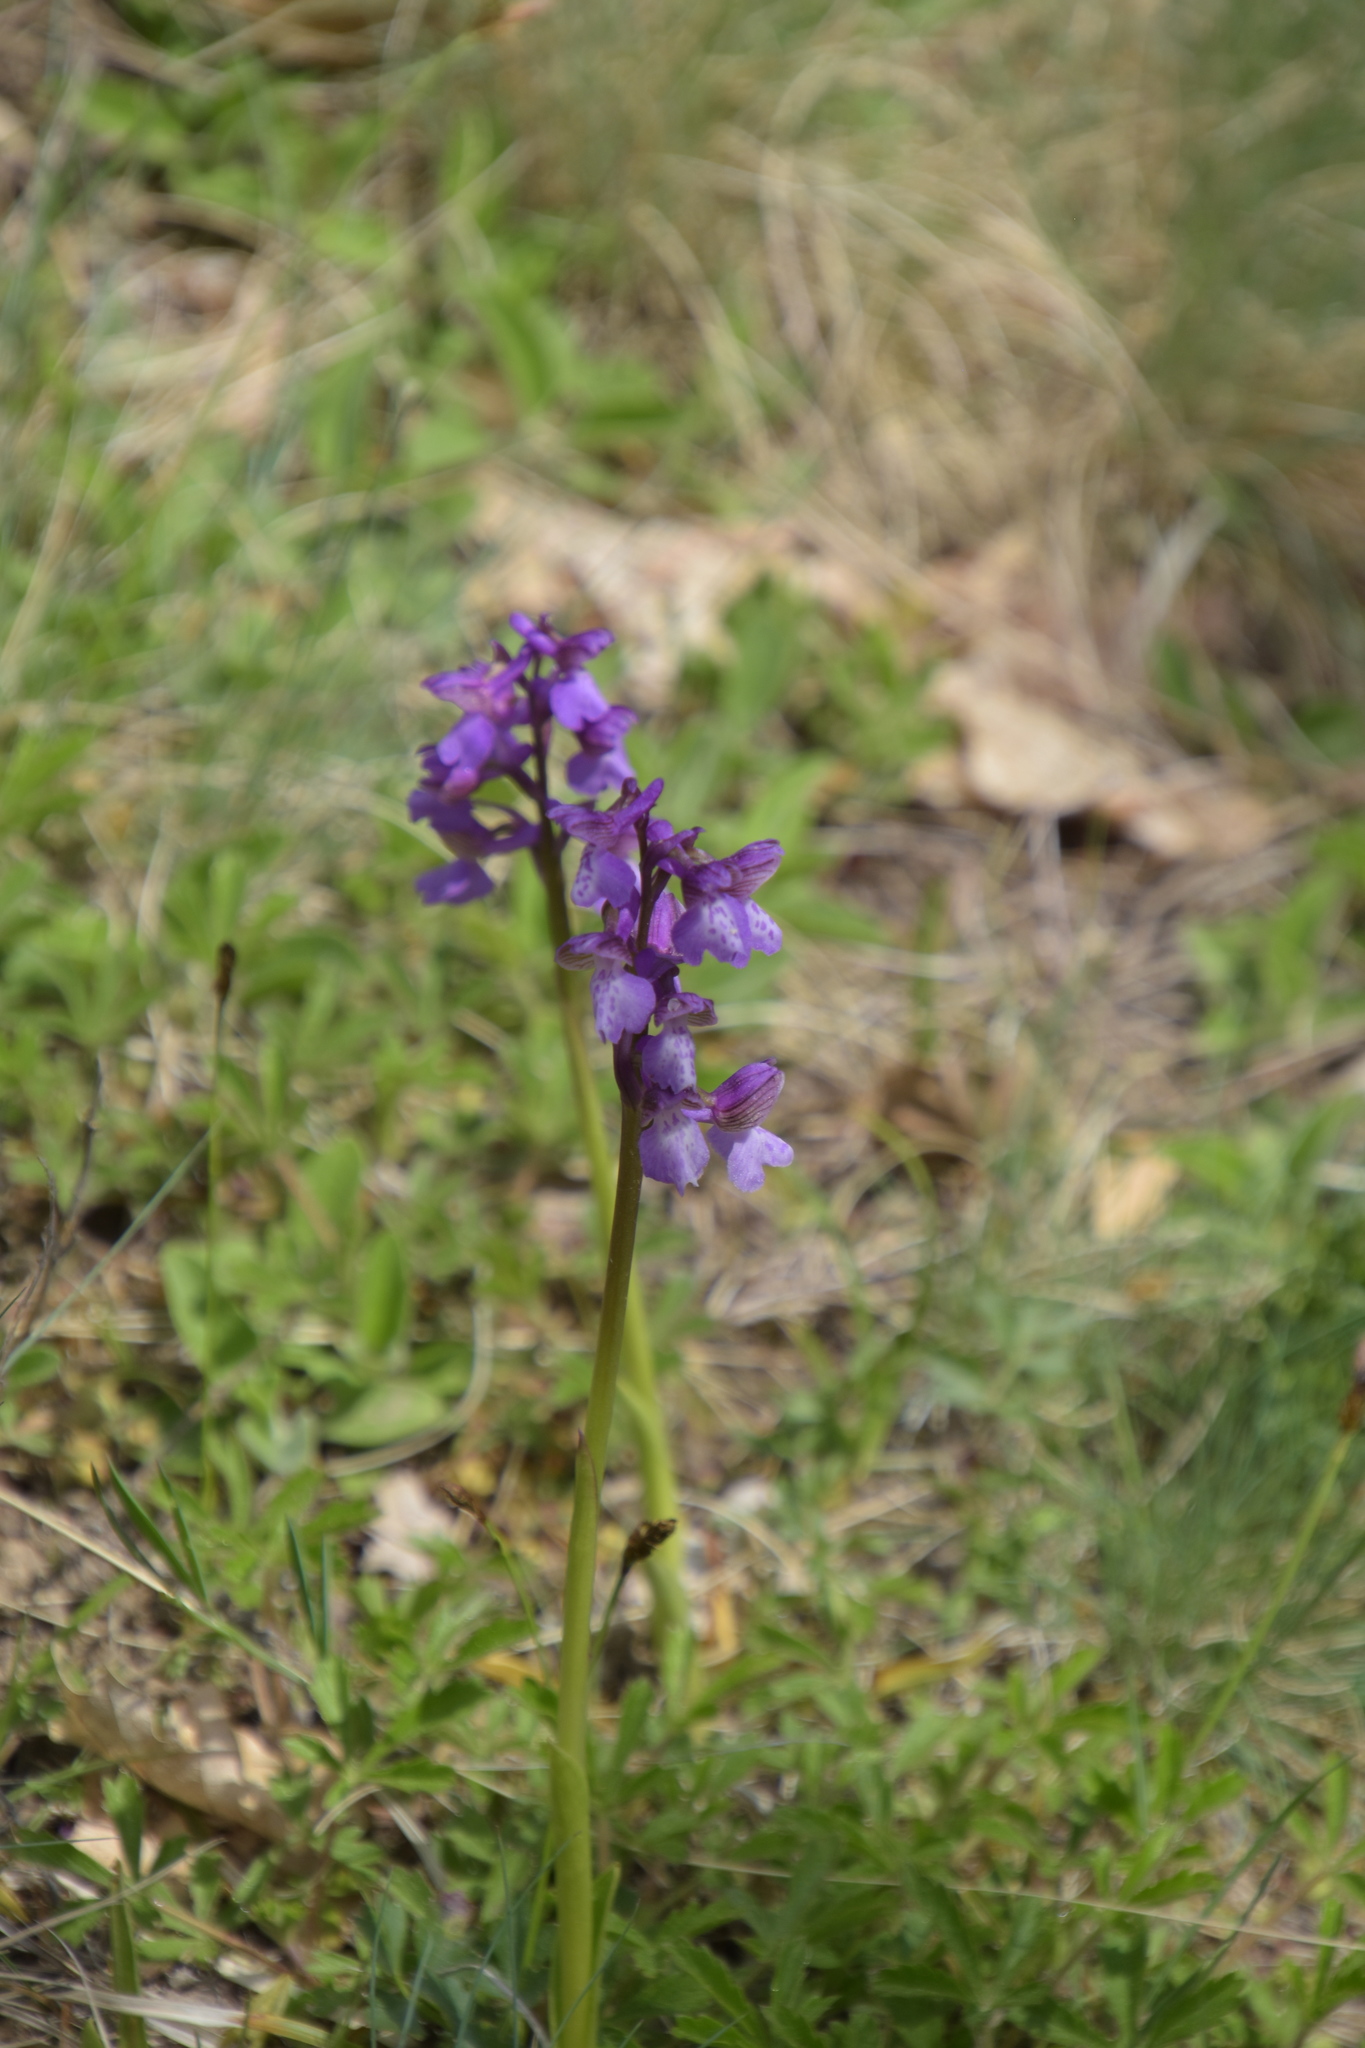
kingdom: Plantae
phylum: Tracheophyta
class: Liliopsida
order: Asparagales
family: Orchidaceae
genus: Anacamptis
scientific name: Anacamptis morio
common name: Green-winged orchid
